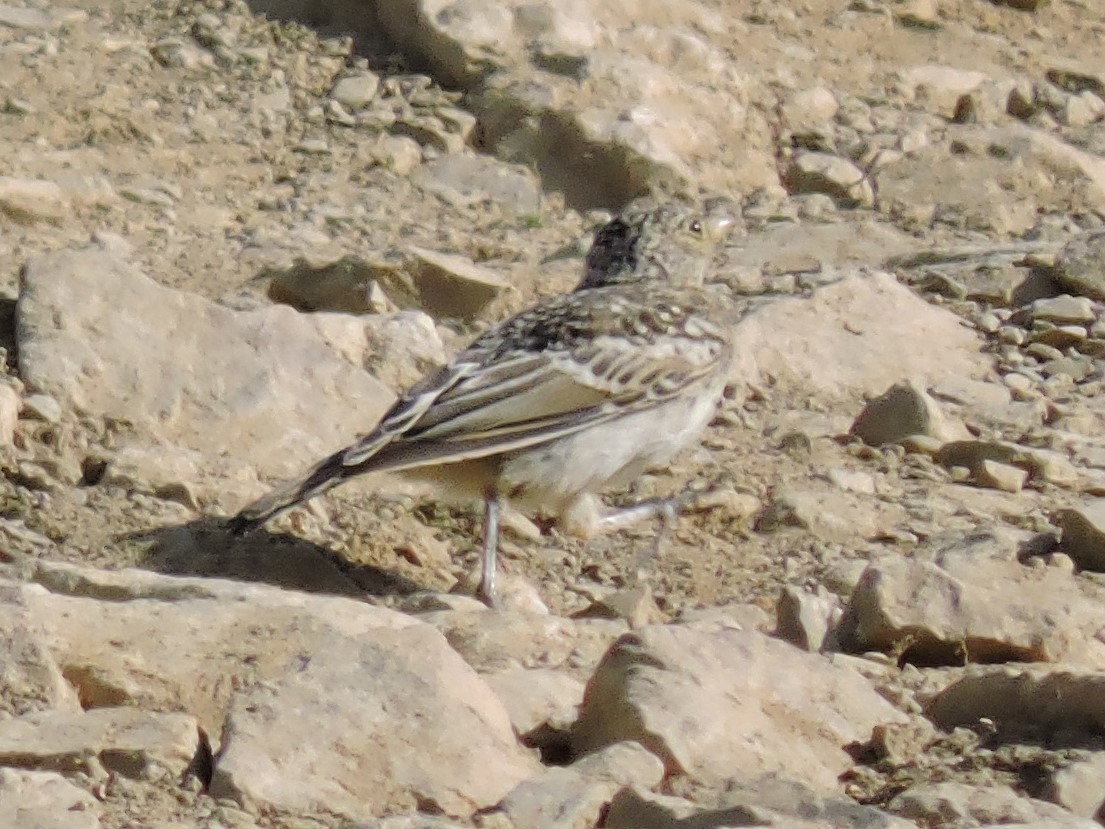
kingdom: Animalia
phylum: Chordata
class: Aves
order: Passeriformes
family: Alaudidae
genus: Calandrella
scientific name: Calandrella brachydactyla
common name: Greater short-toed lark
